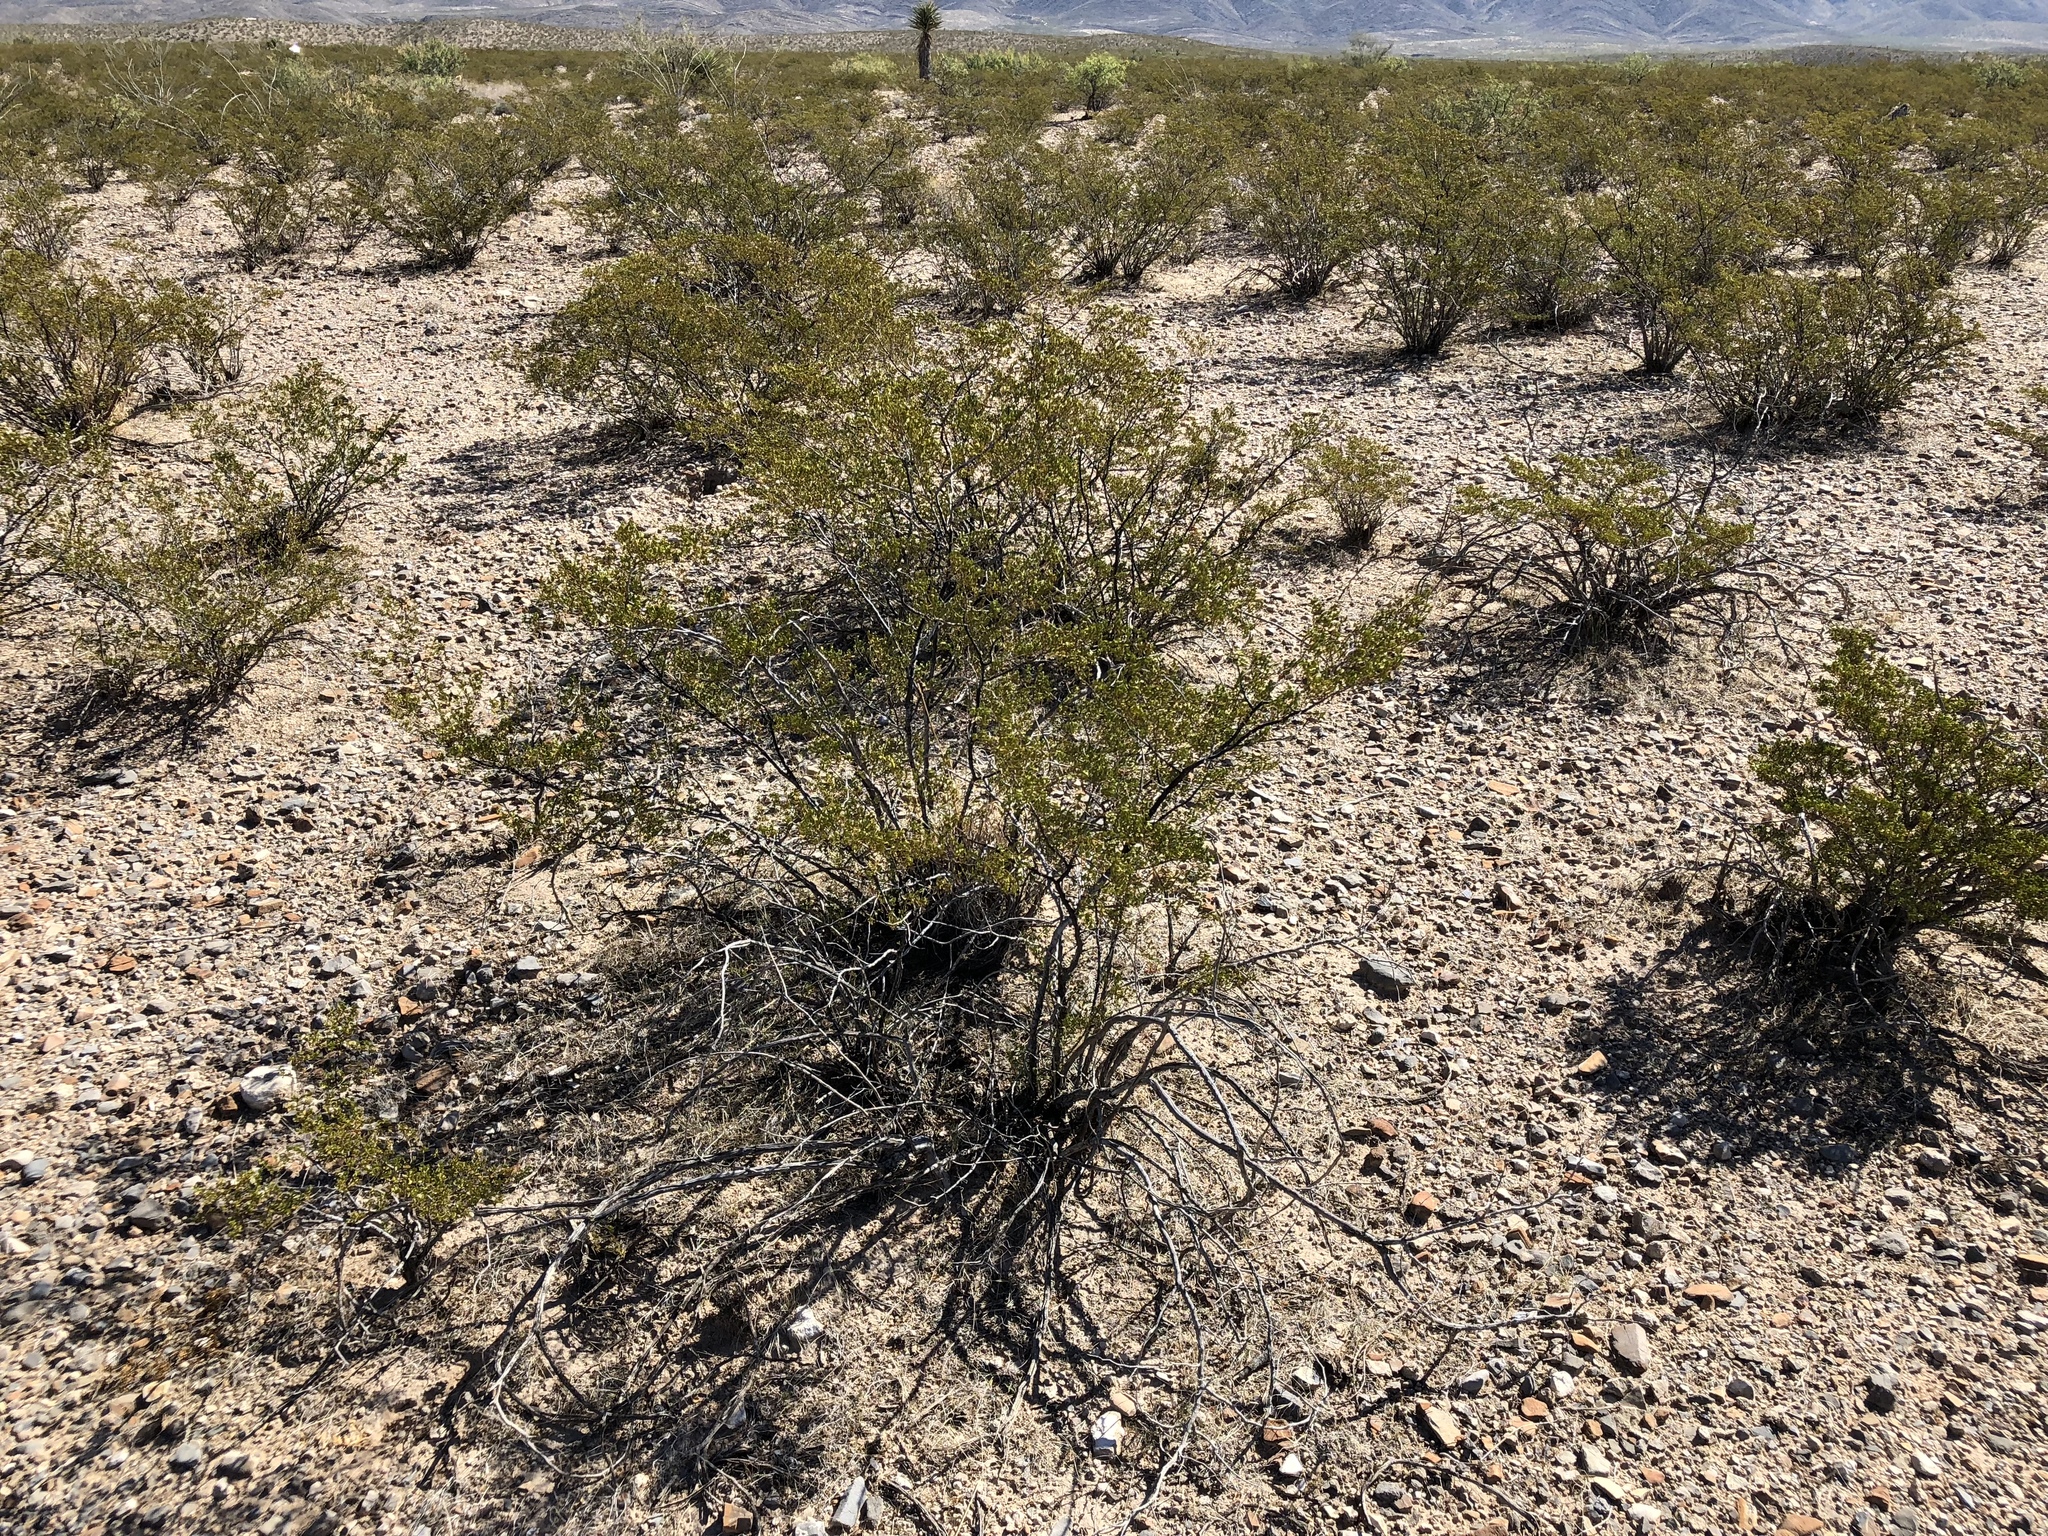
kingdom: Plantae
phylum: Tracheophyta
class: Magnoliopsida
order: Zygophyllales
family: Zygophyllaceae
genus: Larrea
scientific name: Larrea tridentata
